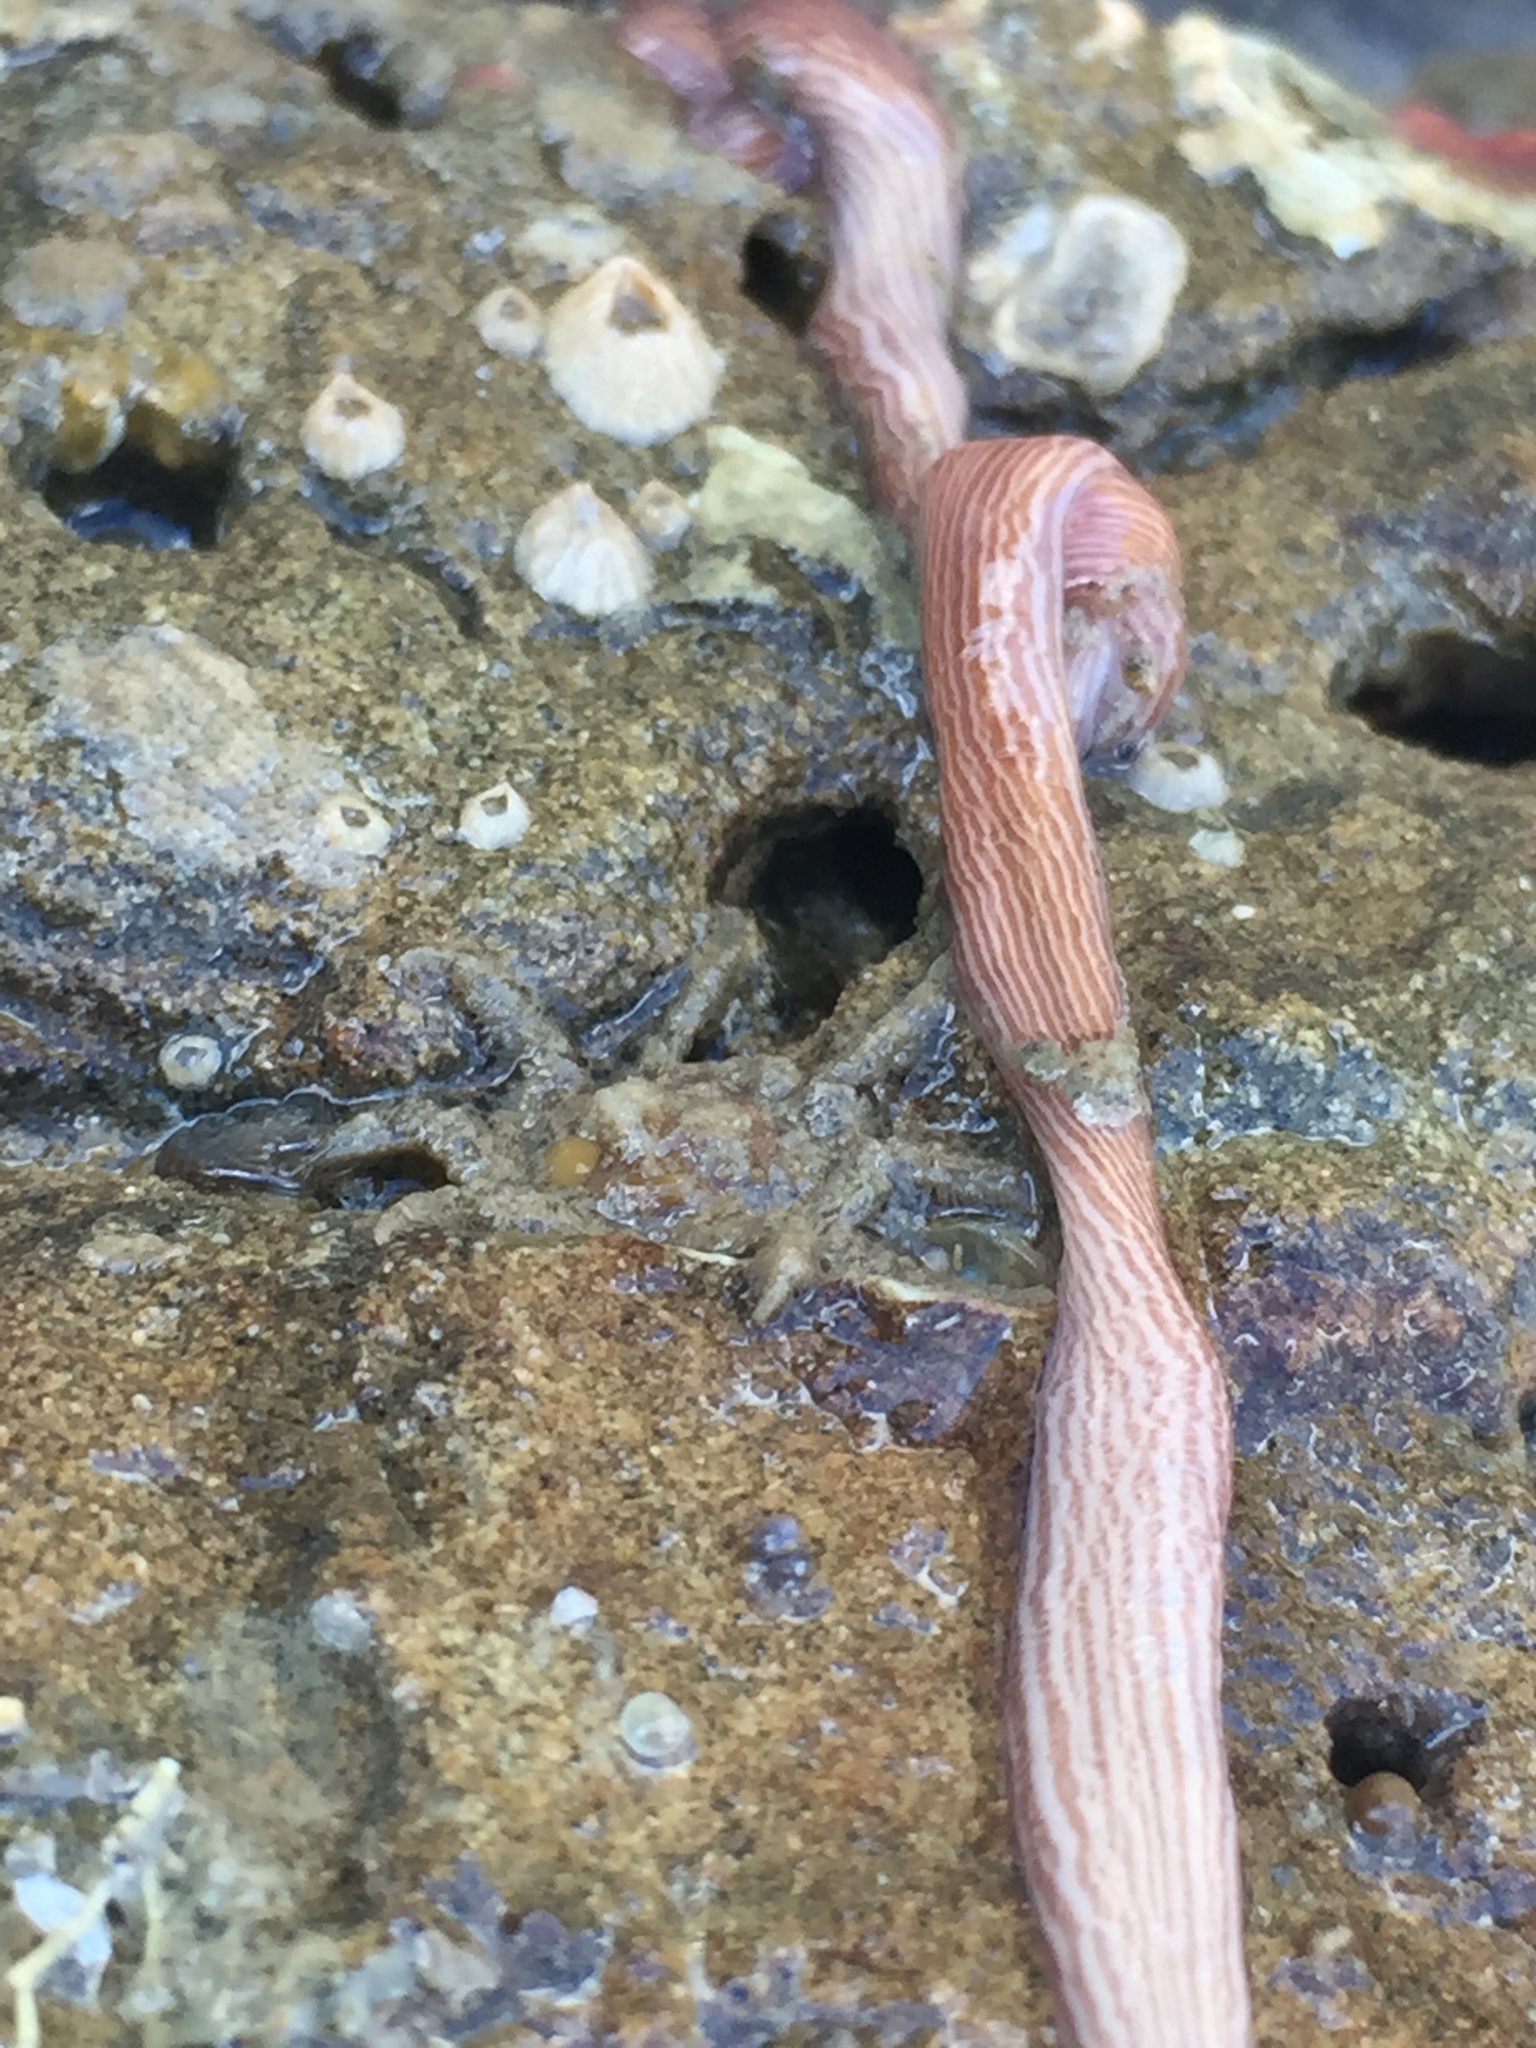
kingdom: Animalia
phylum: Nemertea
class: Pilidiophora
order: Heteronemertea
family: Valenciniidae
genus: Baseodiscus
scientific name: Baseodiscus delineatus
